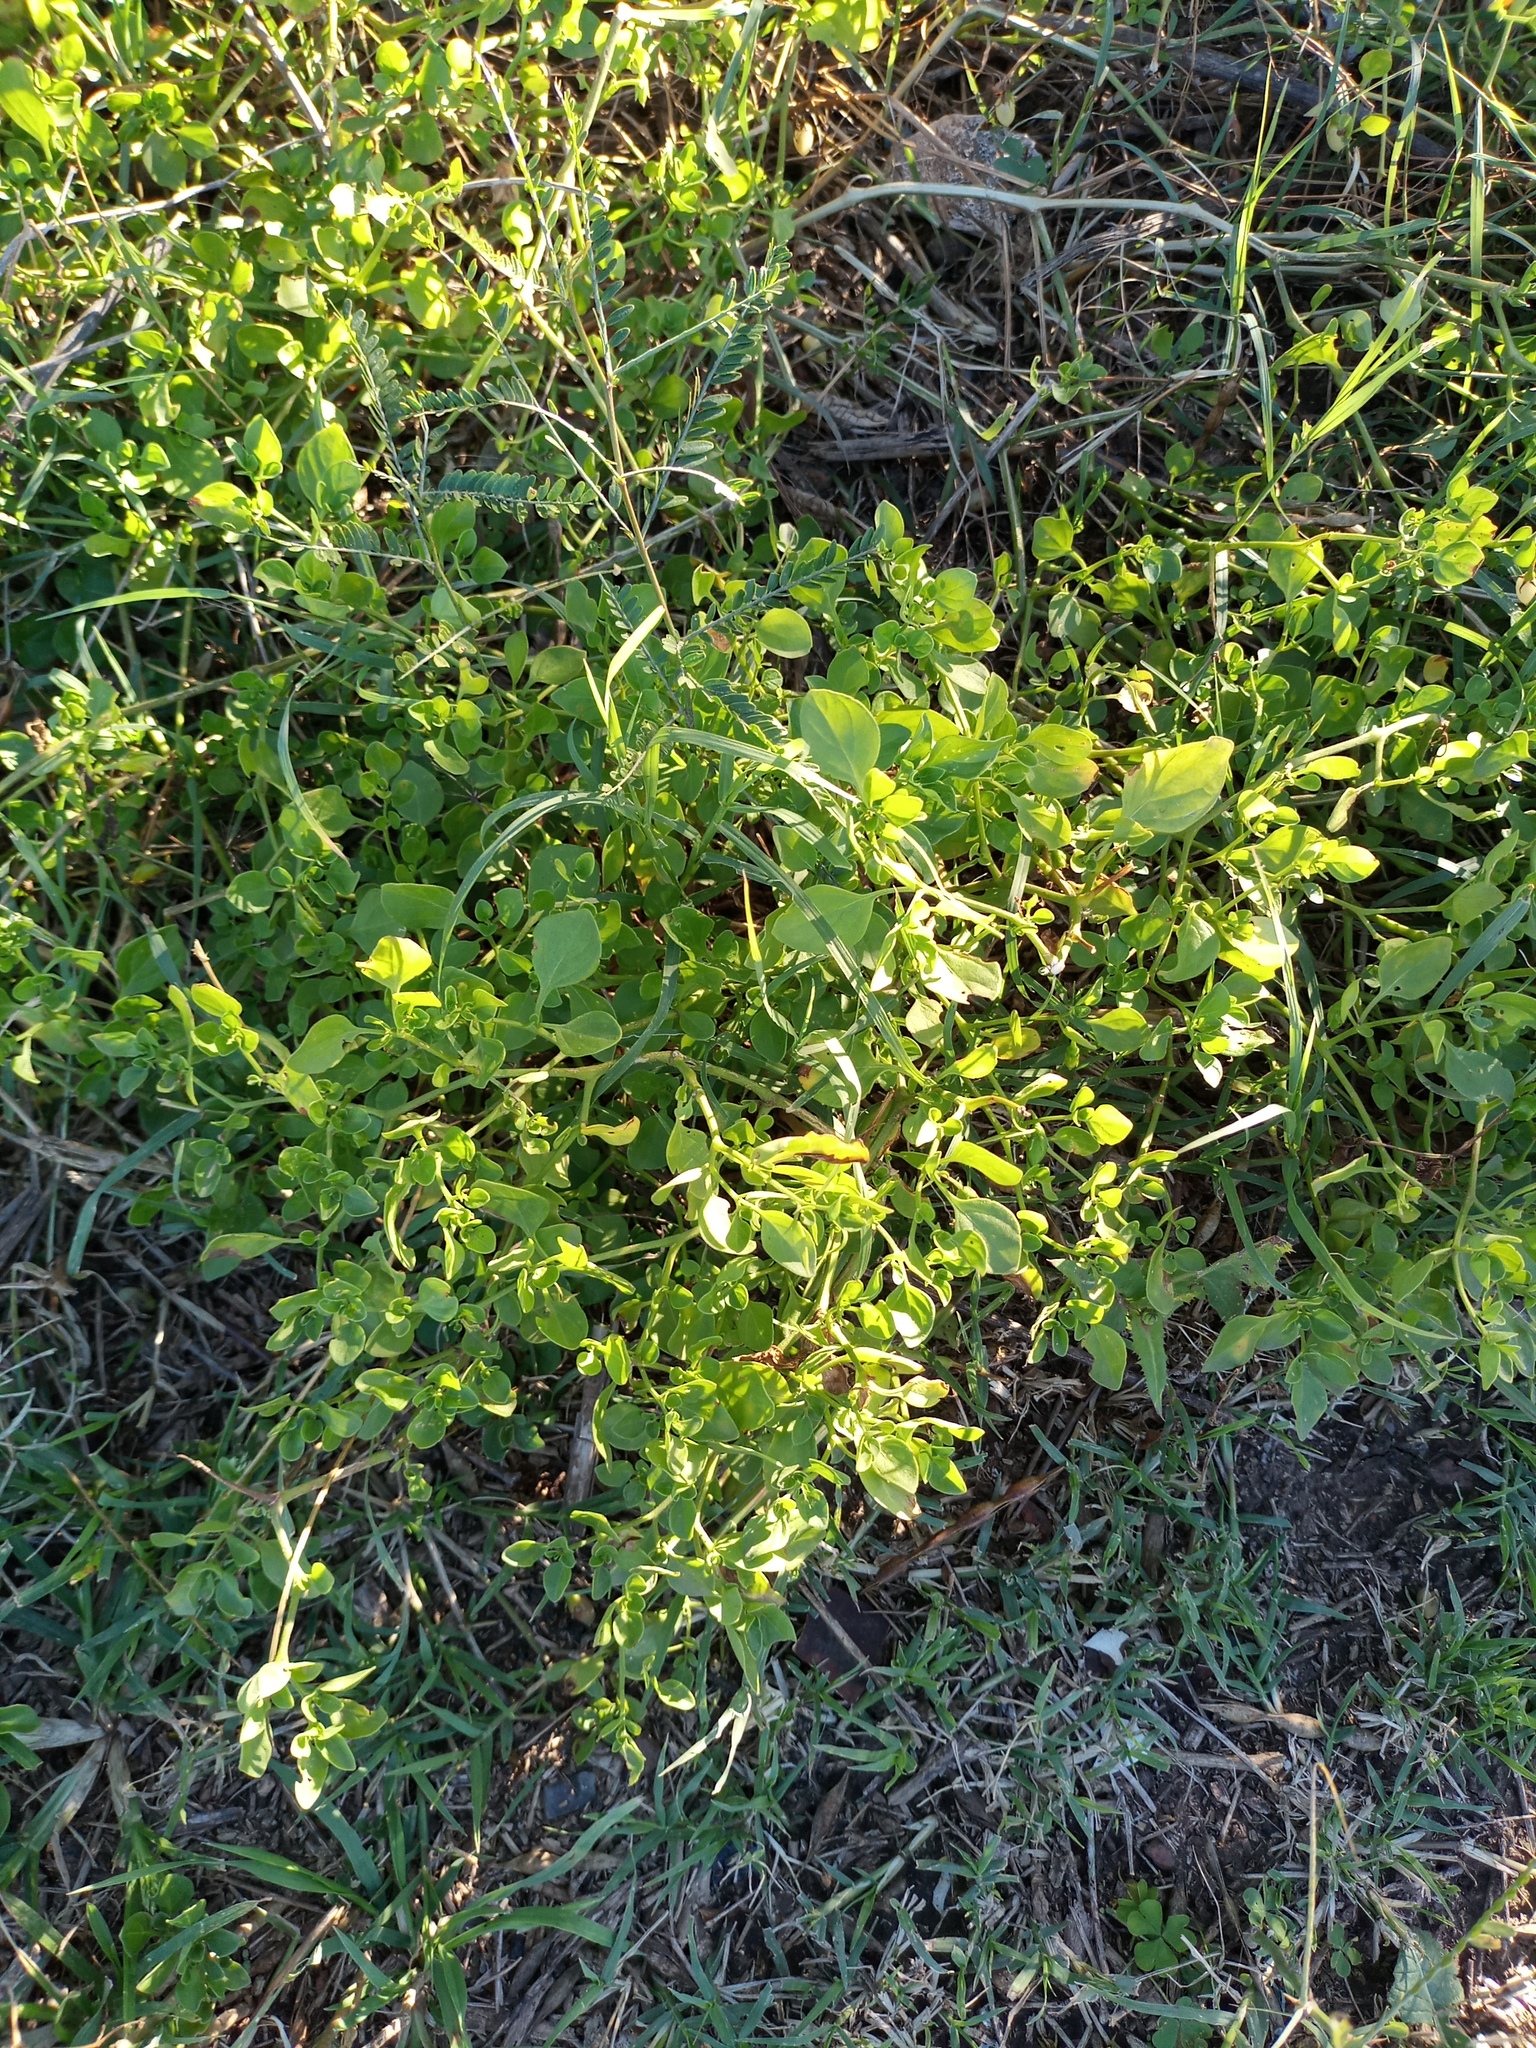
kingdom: Plantae
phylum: Tracheophyta
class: Magnoliopsida
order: Solanales
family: Solanaceae
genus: Salpichroa
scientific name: Salpichroa origanifolia
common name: Lily-of-the-valley-vine
